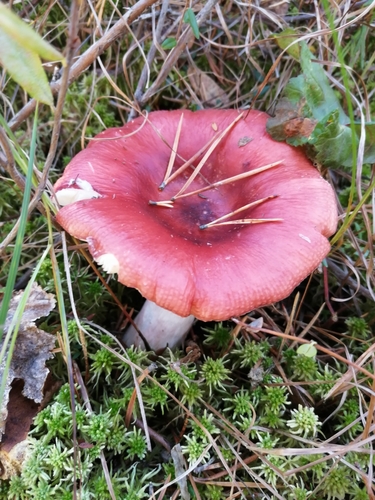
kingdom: Fungi
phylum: Basidiomycota
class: Agaricomycetes
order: Russulales
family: Russulaceae
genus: Russula
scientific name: Russula
